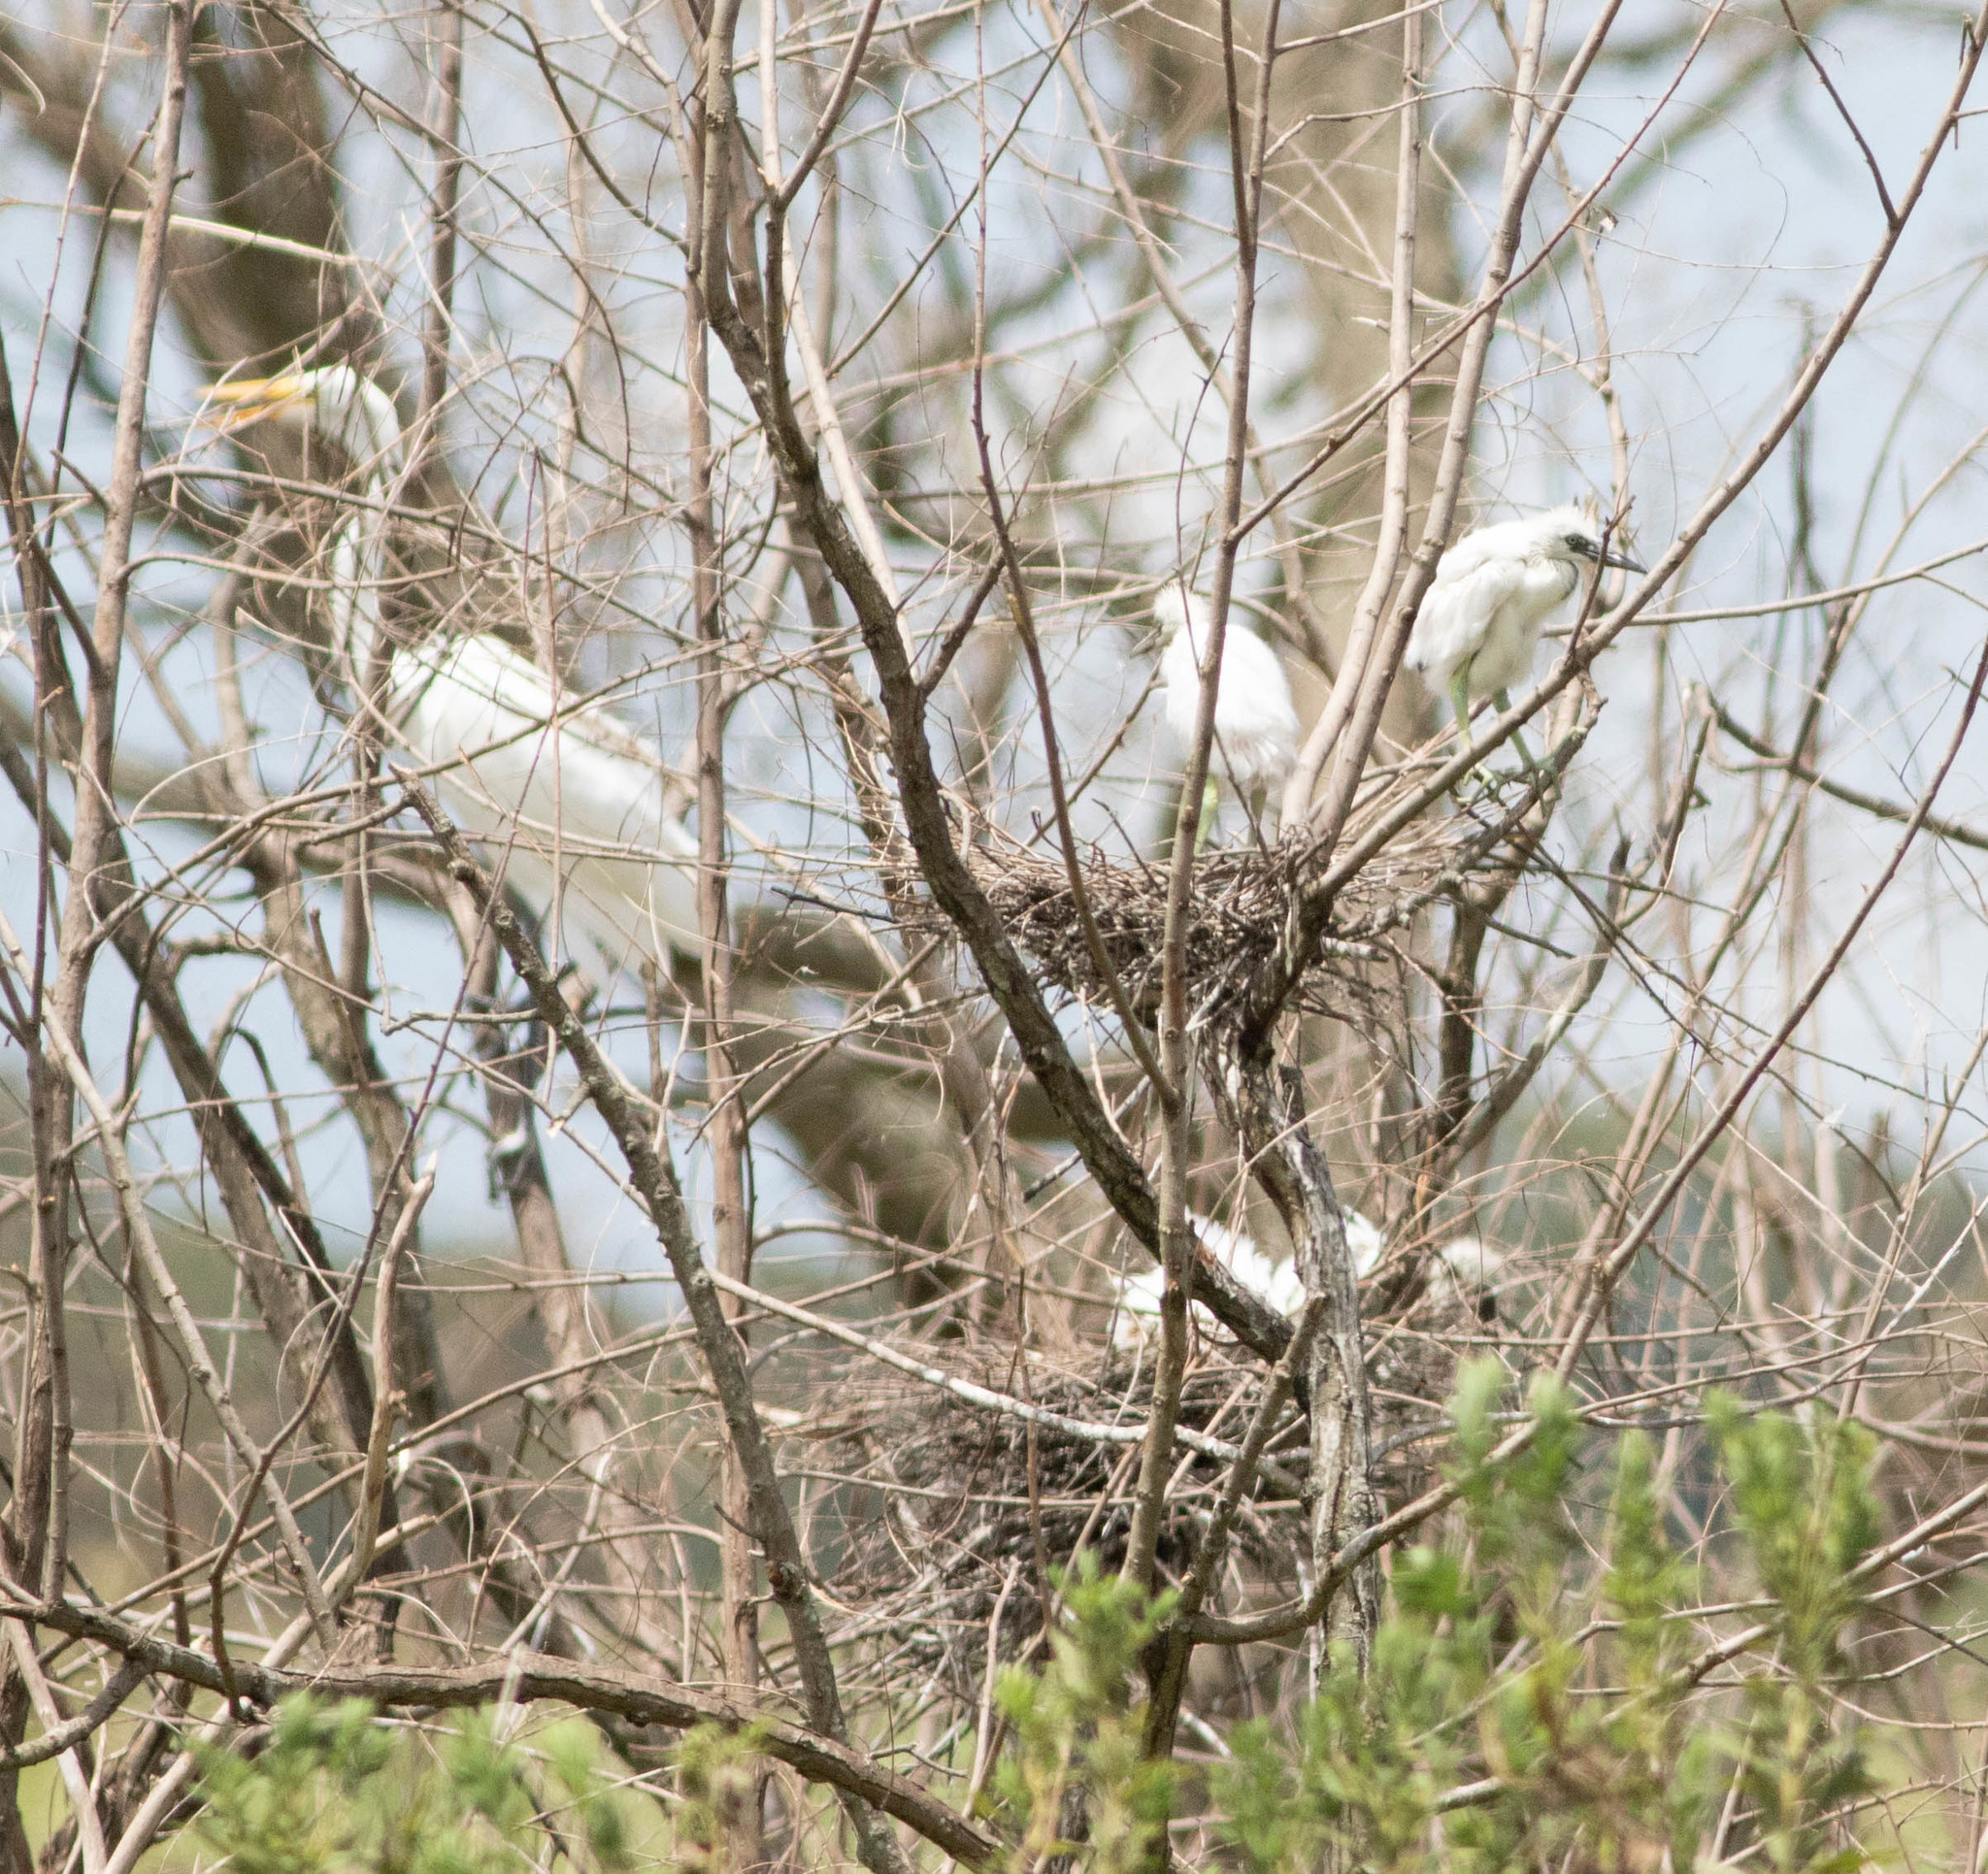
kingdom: Animalia
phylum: Chordata
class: Aves
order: Pelecaniformes
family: Ardeidae
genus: Ardea
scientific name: Ardea alba
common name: Great egret
